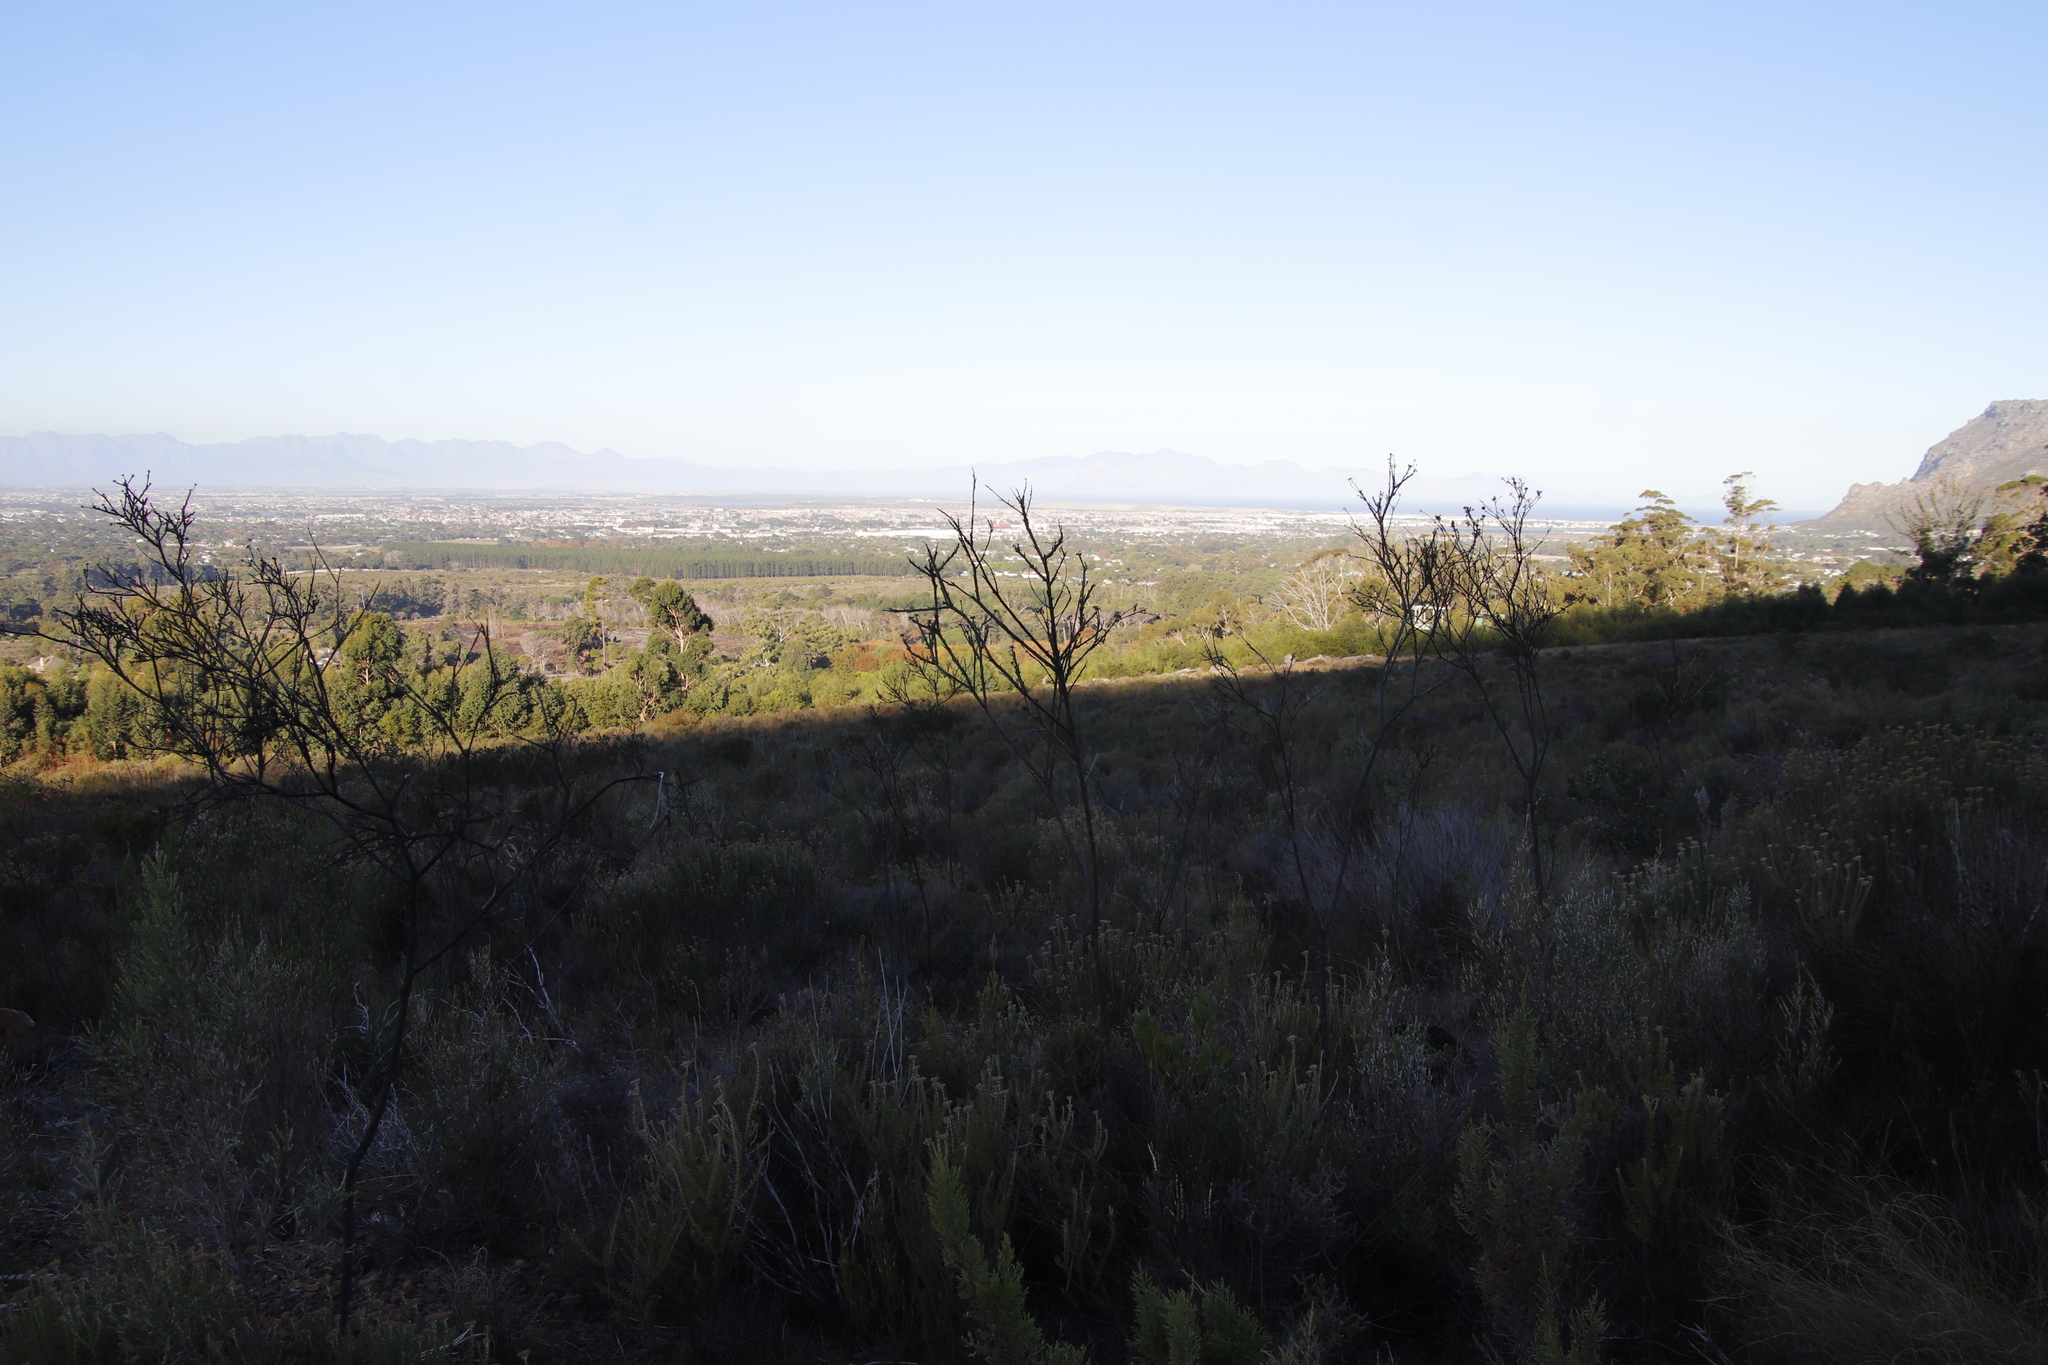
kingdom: Plantae
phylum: Tracheophyta
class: Magnoliopsida
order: Santalales
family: Thesiaceae
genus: Thesium
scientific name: Thesium strictum
